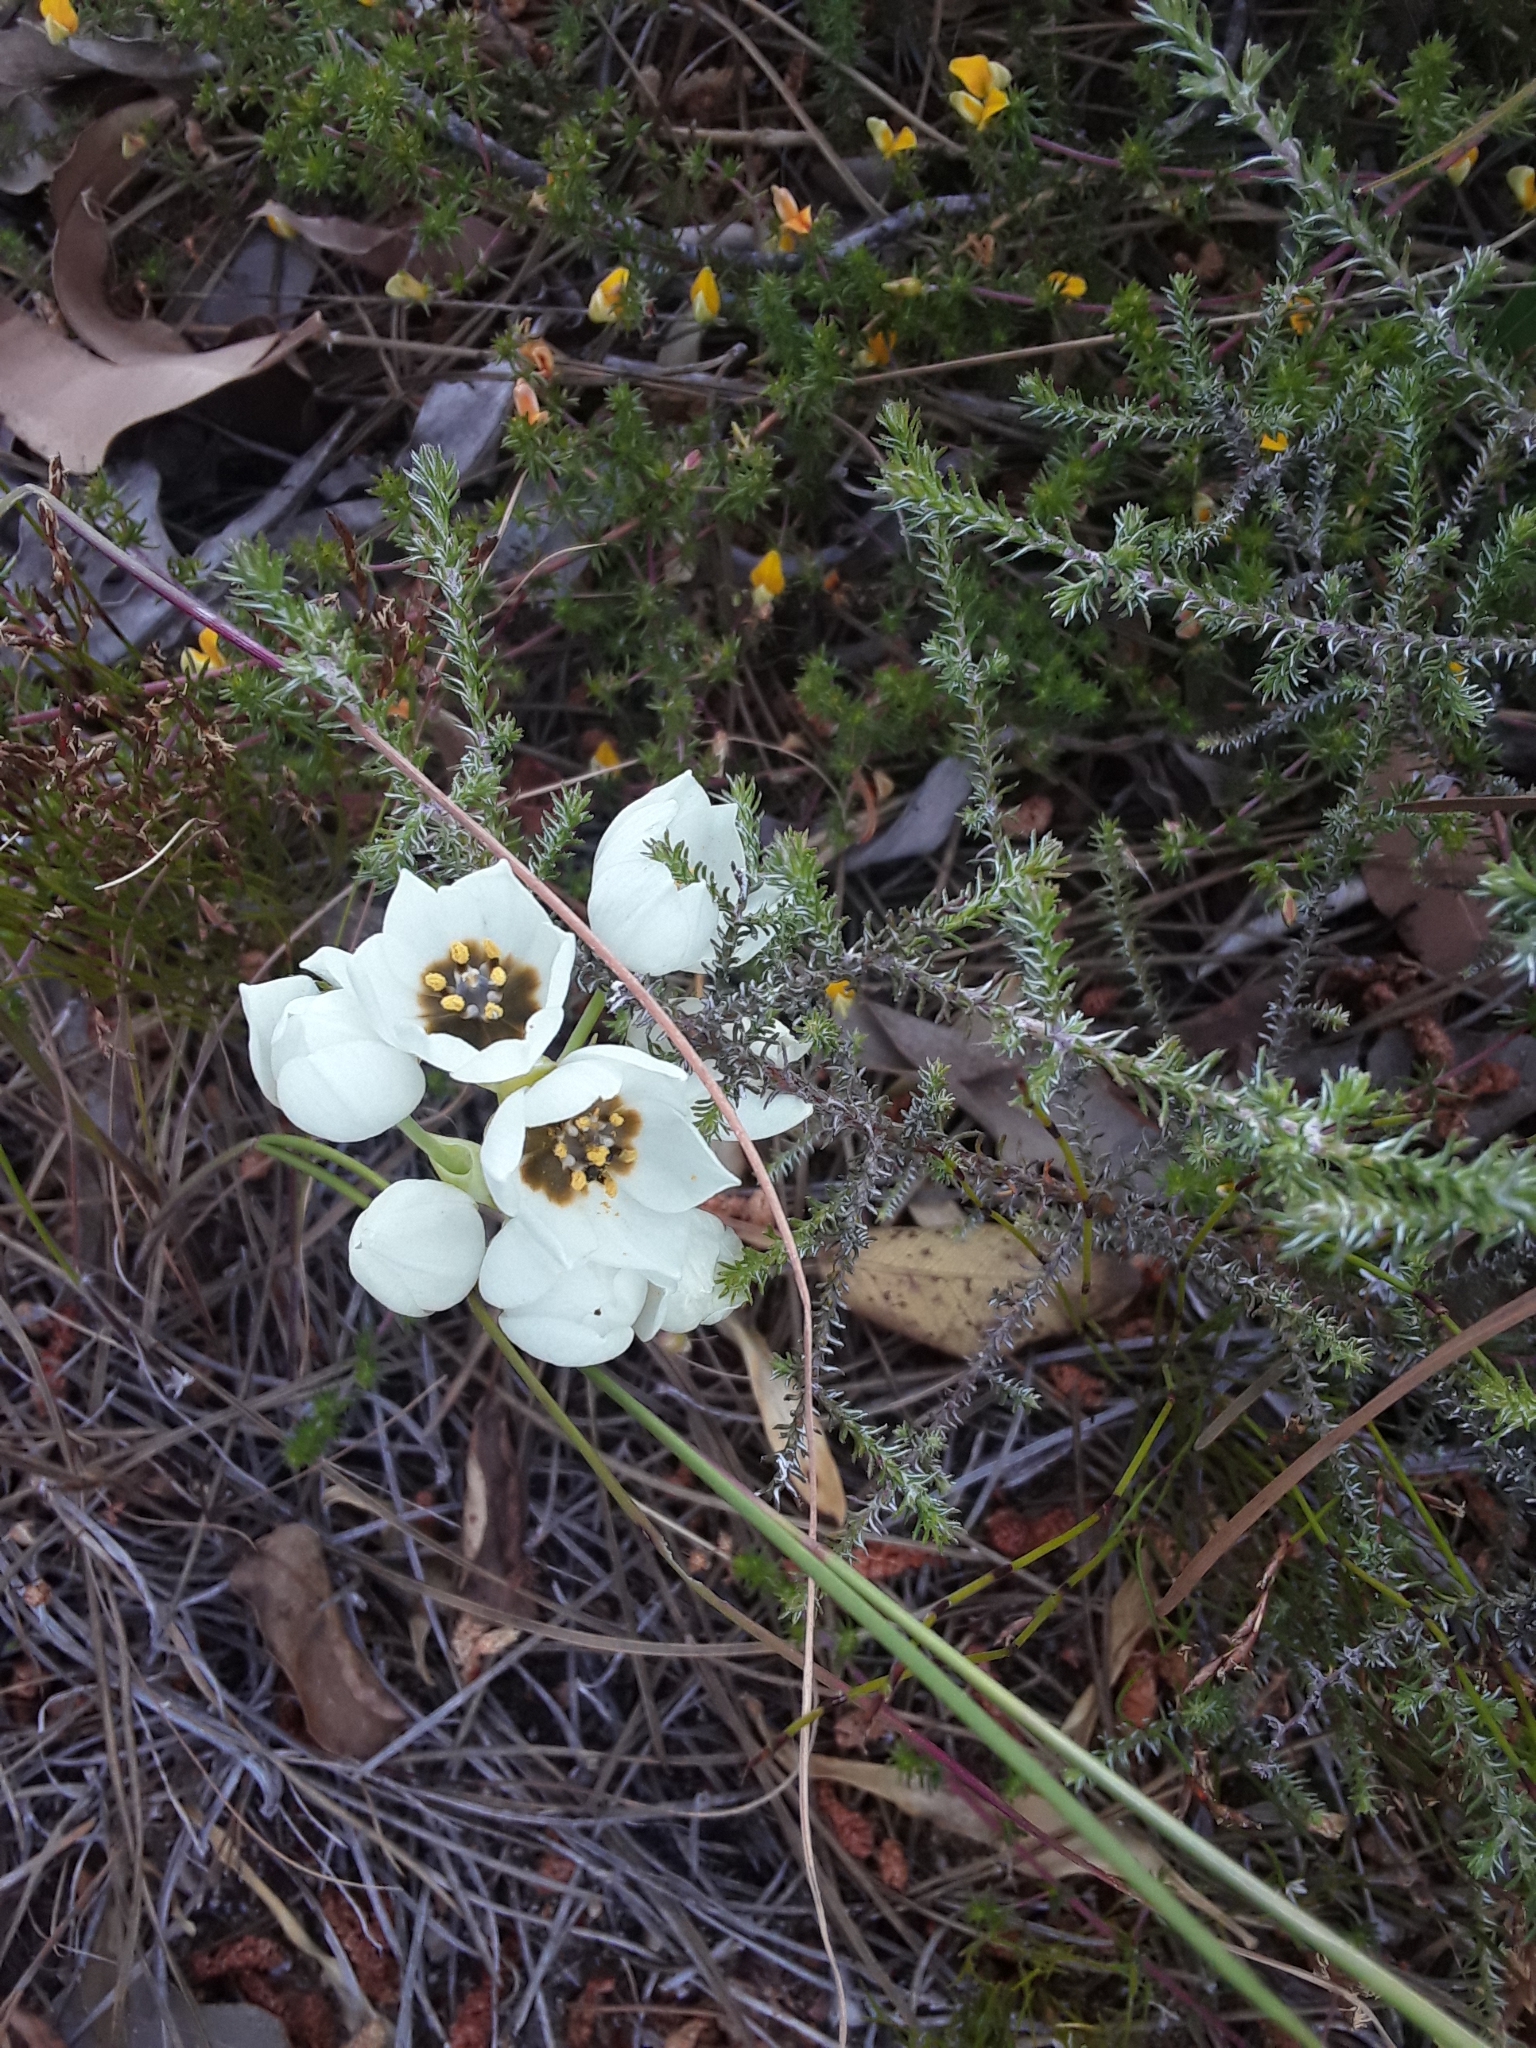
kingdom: Plantae
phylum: Tracheophyta
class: Liliopsida
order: Asparagales
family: Asparagaceae
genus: Ornithogalum
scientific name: Ornithogalum thyrsoides
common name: Chincherinchee
